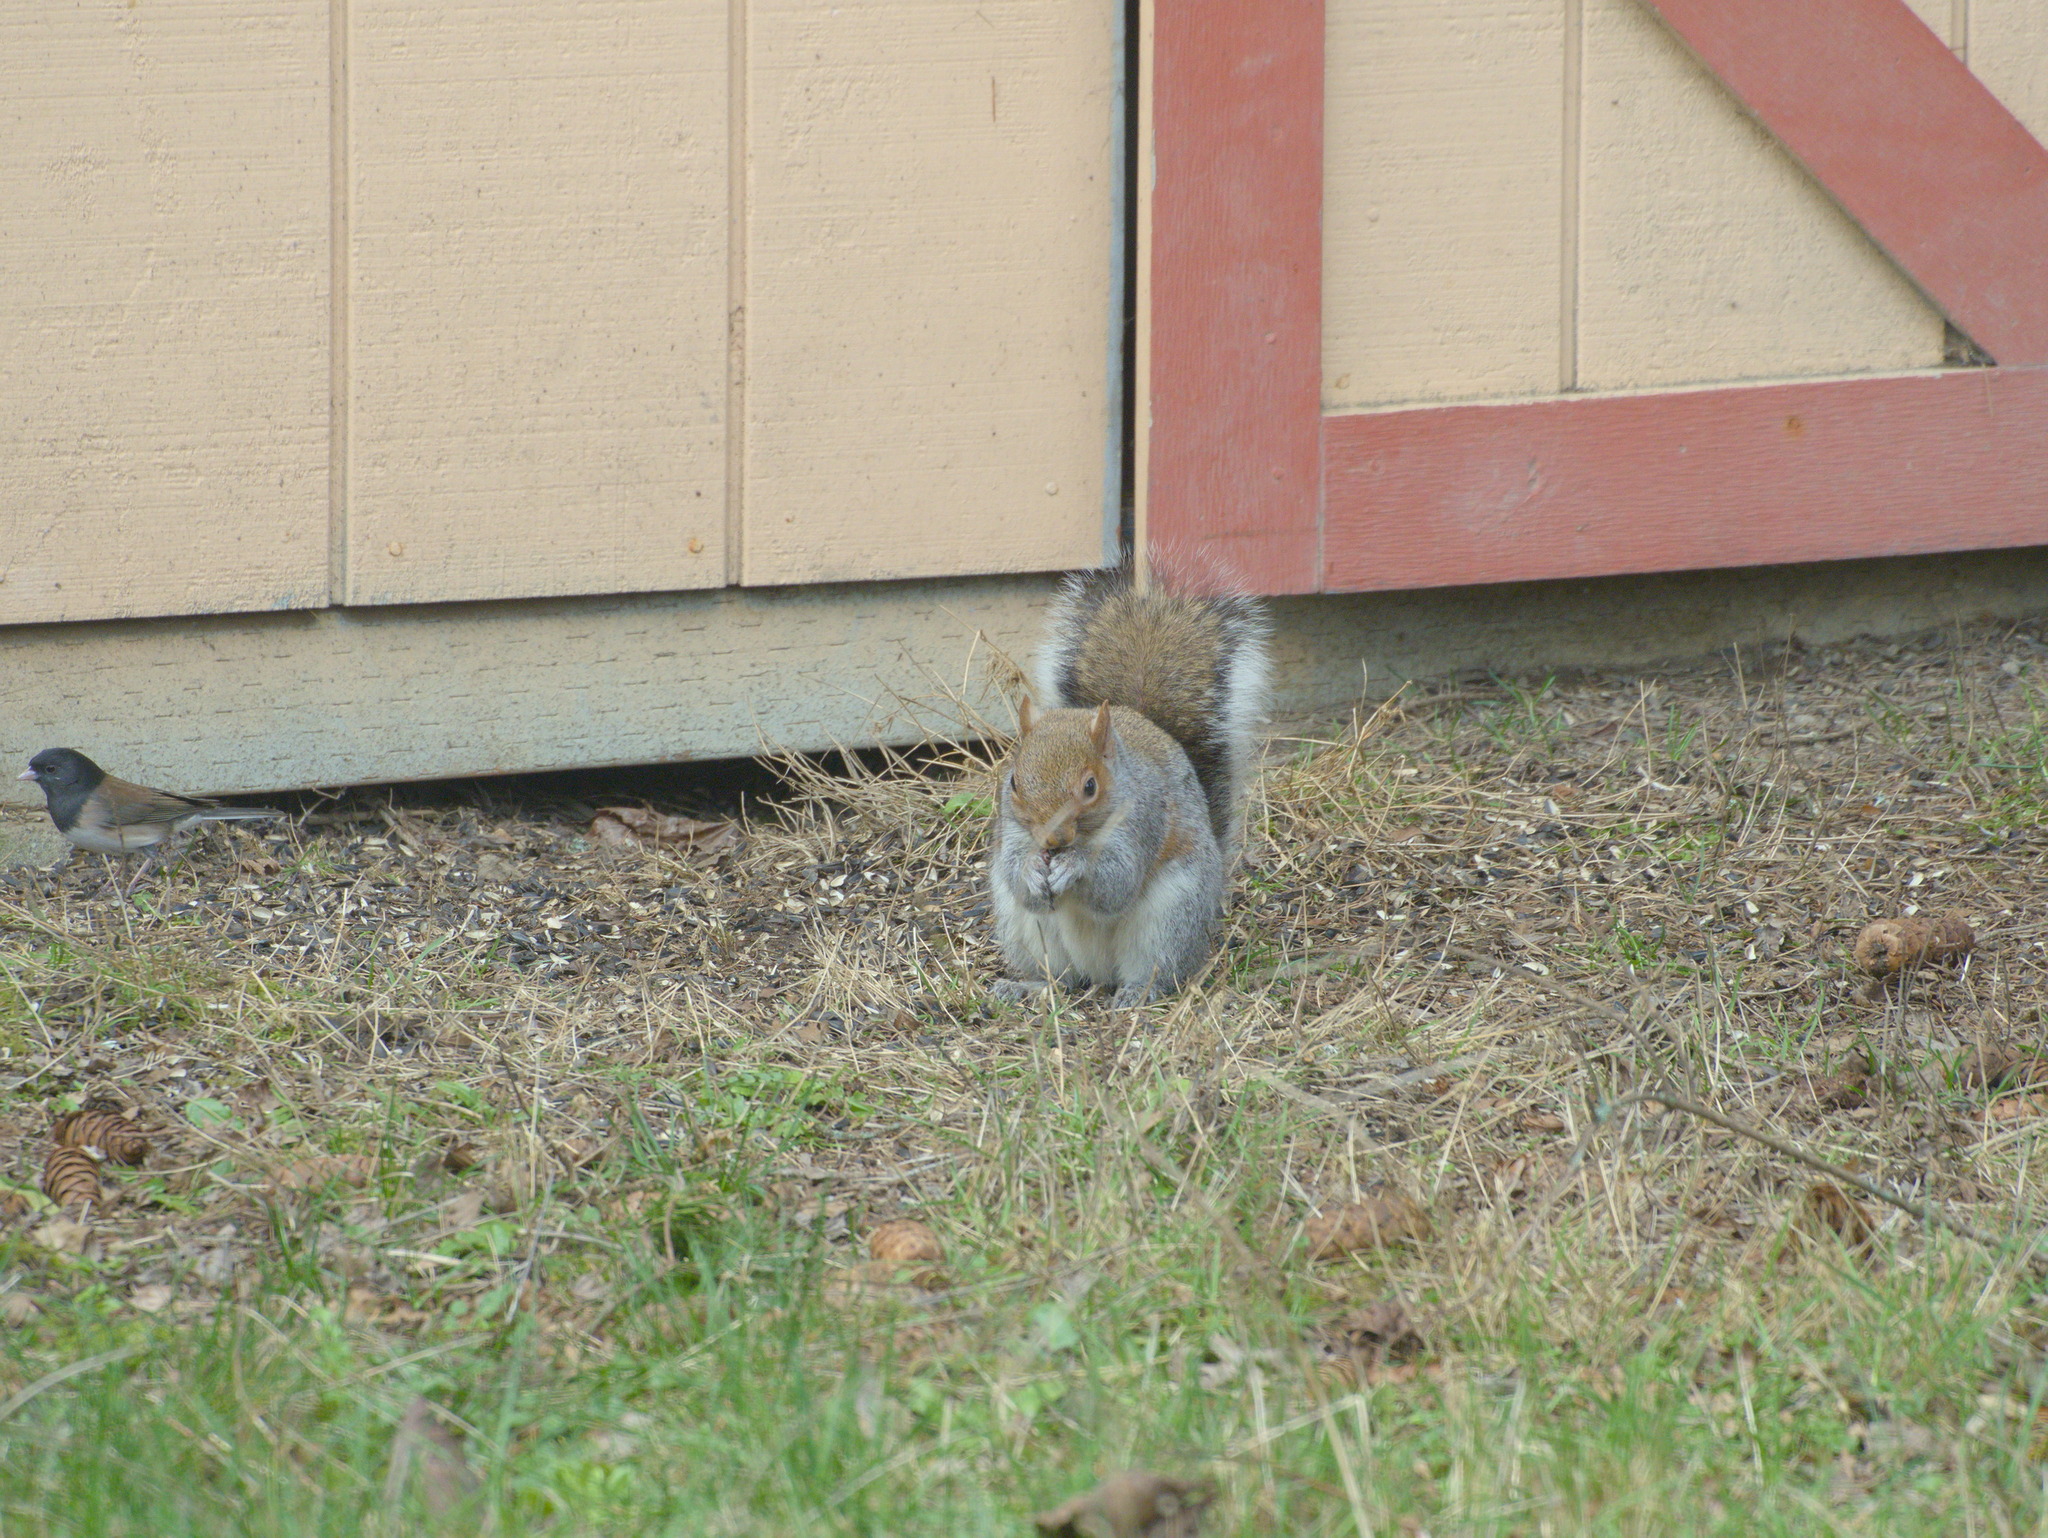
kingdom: Animalia
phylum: Chordata
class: Mammalia
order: Rodentia
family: Sciuridae
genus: Sciurus
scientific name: Sciurus carolinensis
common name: Eastern gray squirrel
